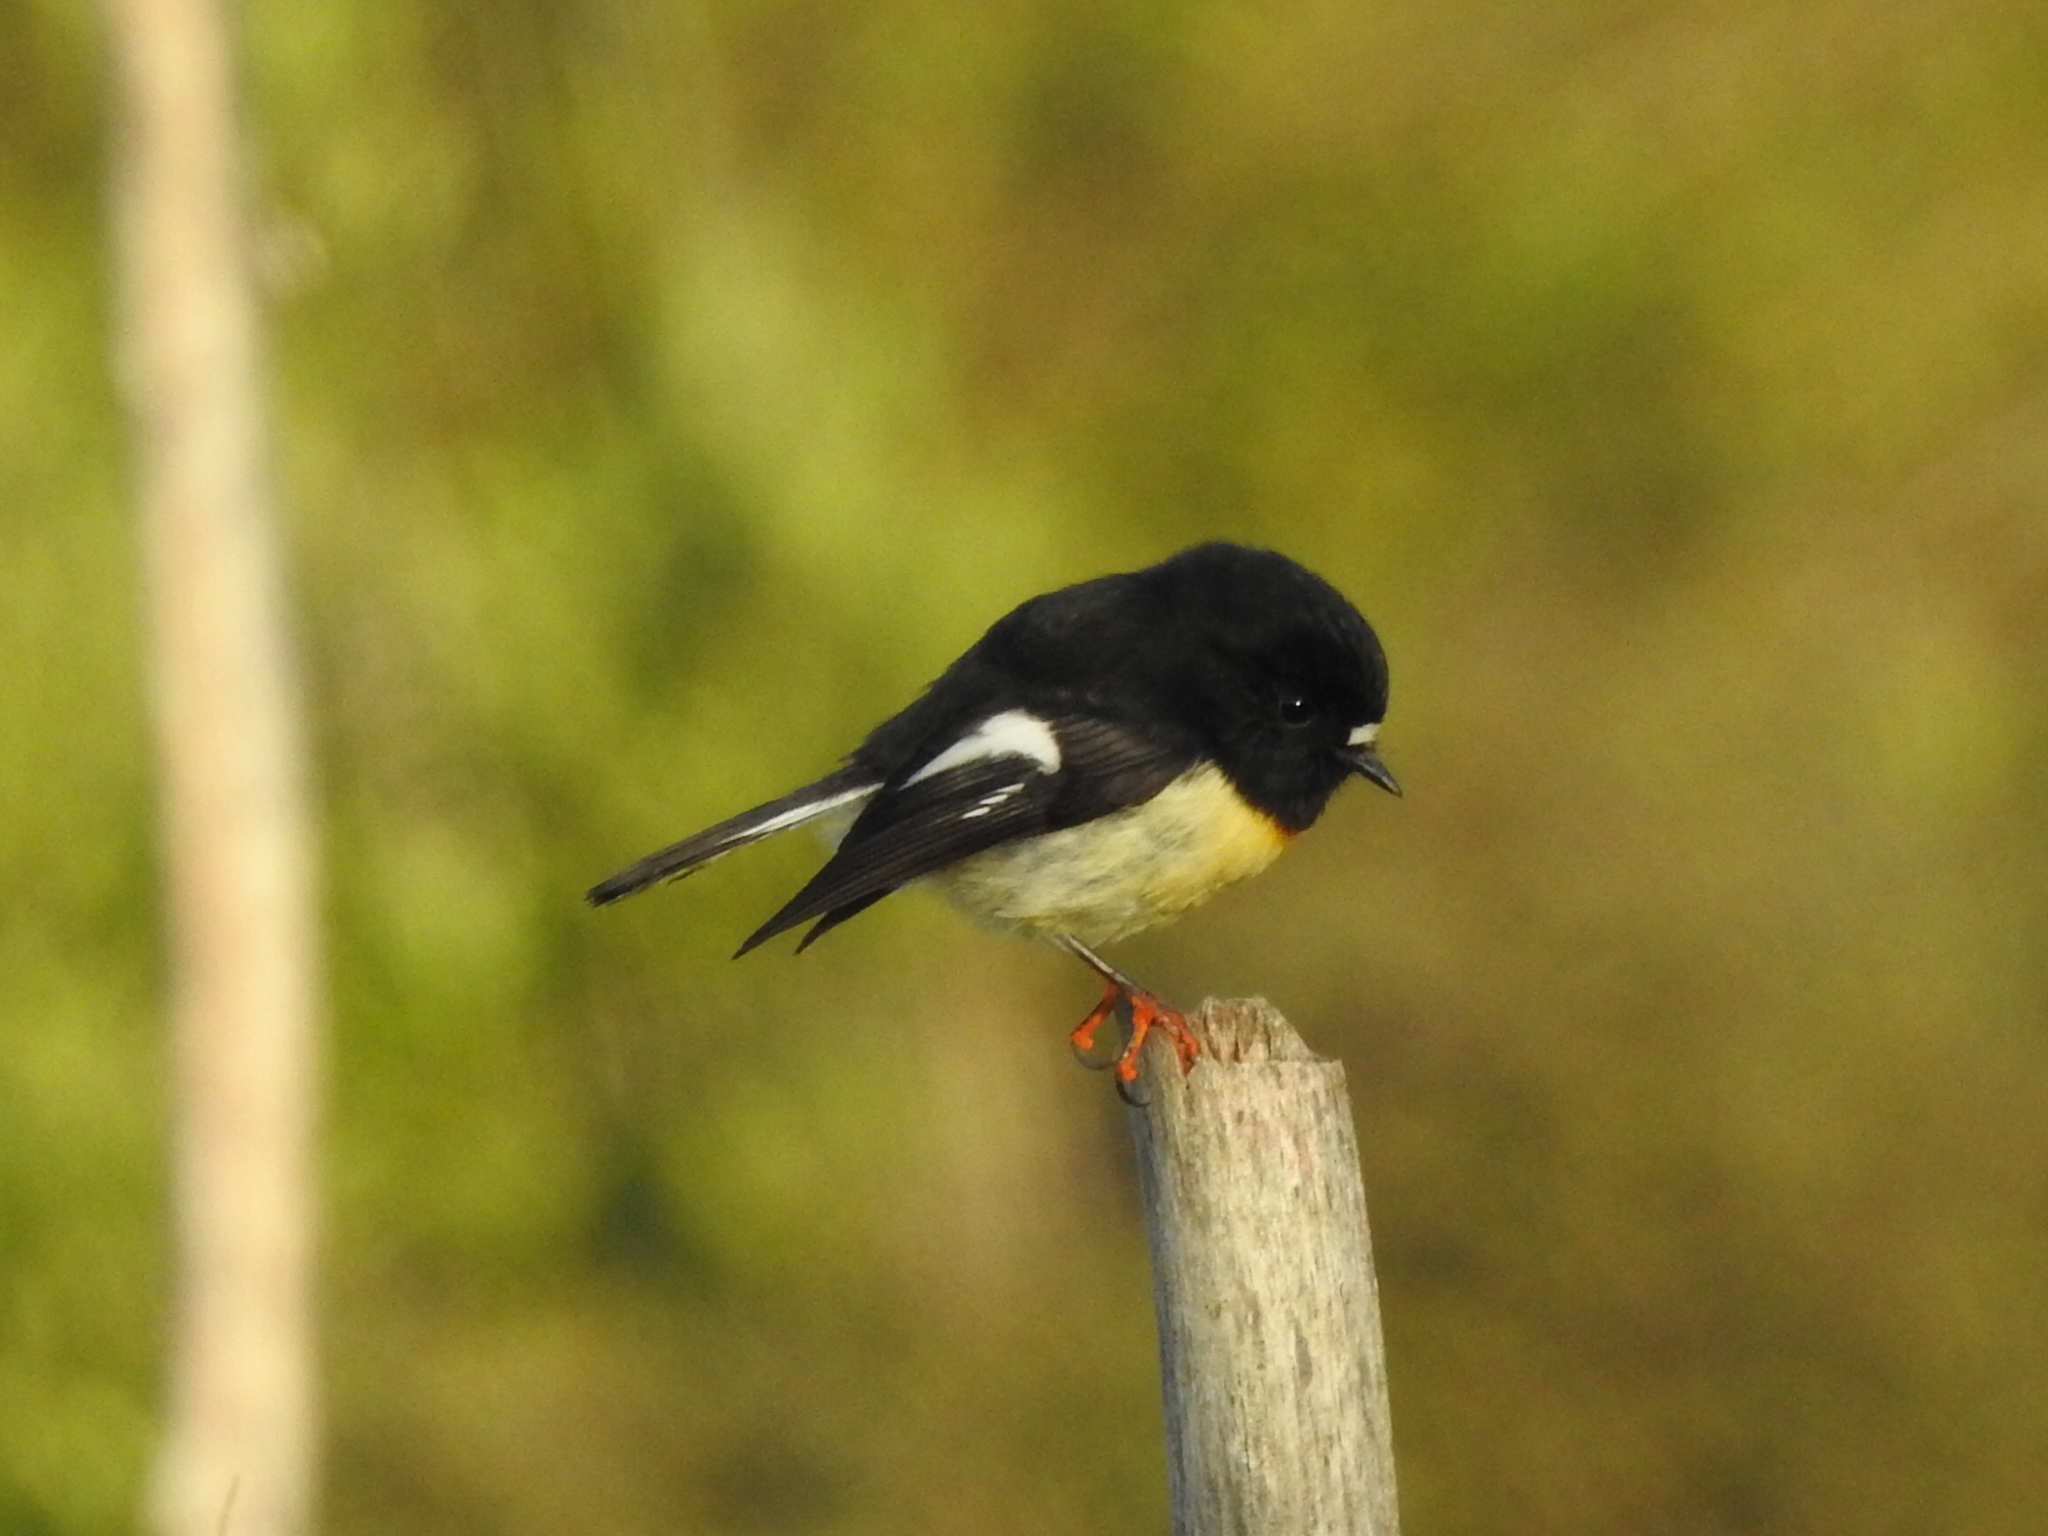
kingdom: Animalia
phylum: Chordata
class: Aves
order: Passeriformes
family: Petroicidae
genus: Petroica
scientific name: Petroica macrocephala
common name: Tomtit
